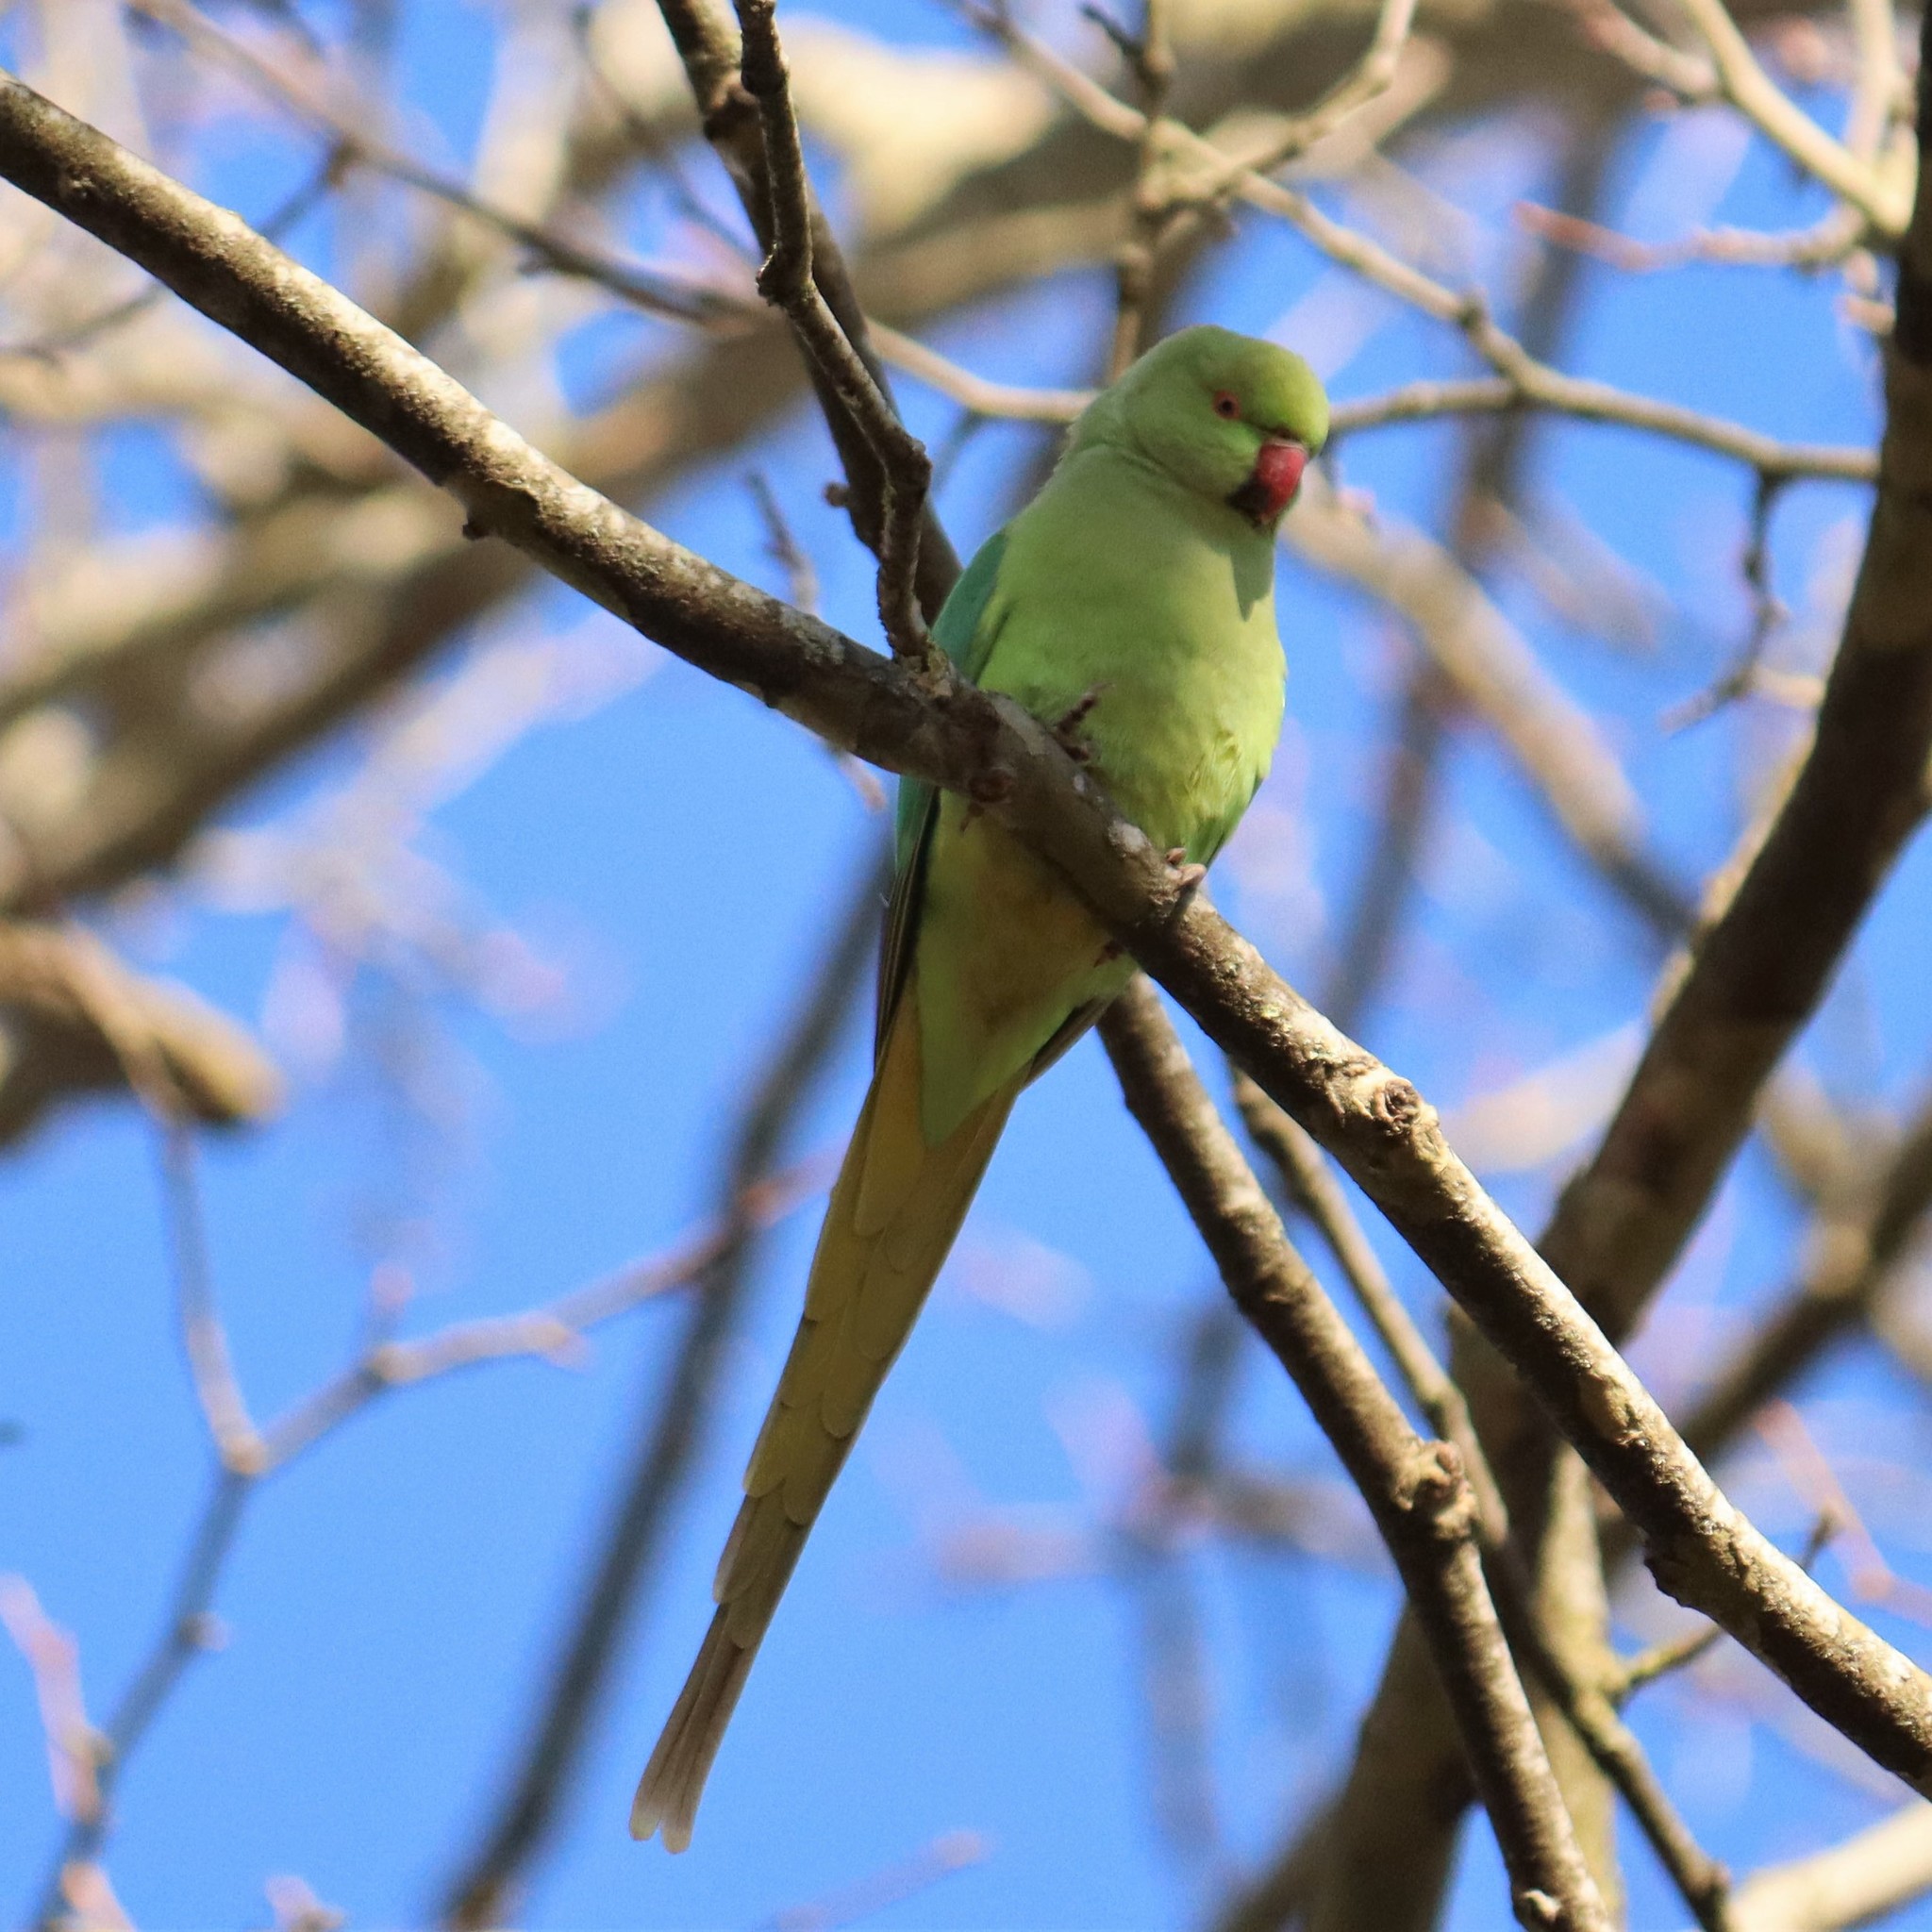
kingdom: Animalia
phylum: Chordata
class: Aves
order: Psittaciformes
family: Psittacidae
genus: Psittacula
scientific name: Psittacula krameri
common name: Rose-ringed parakeet
